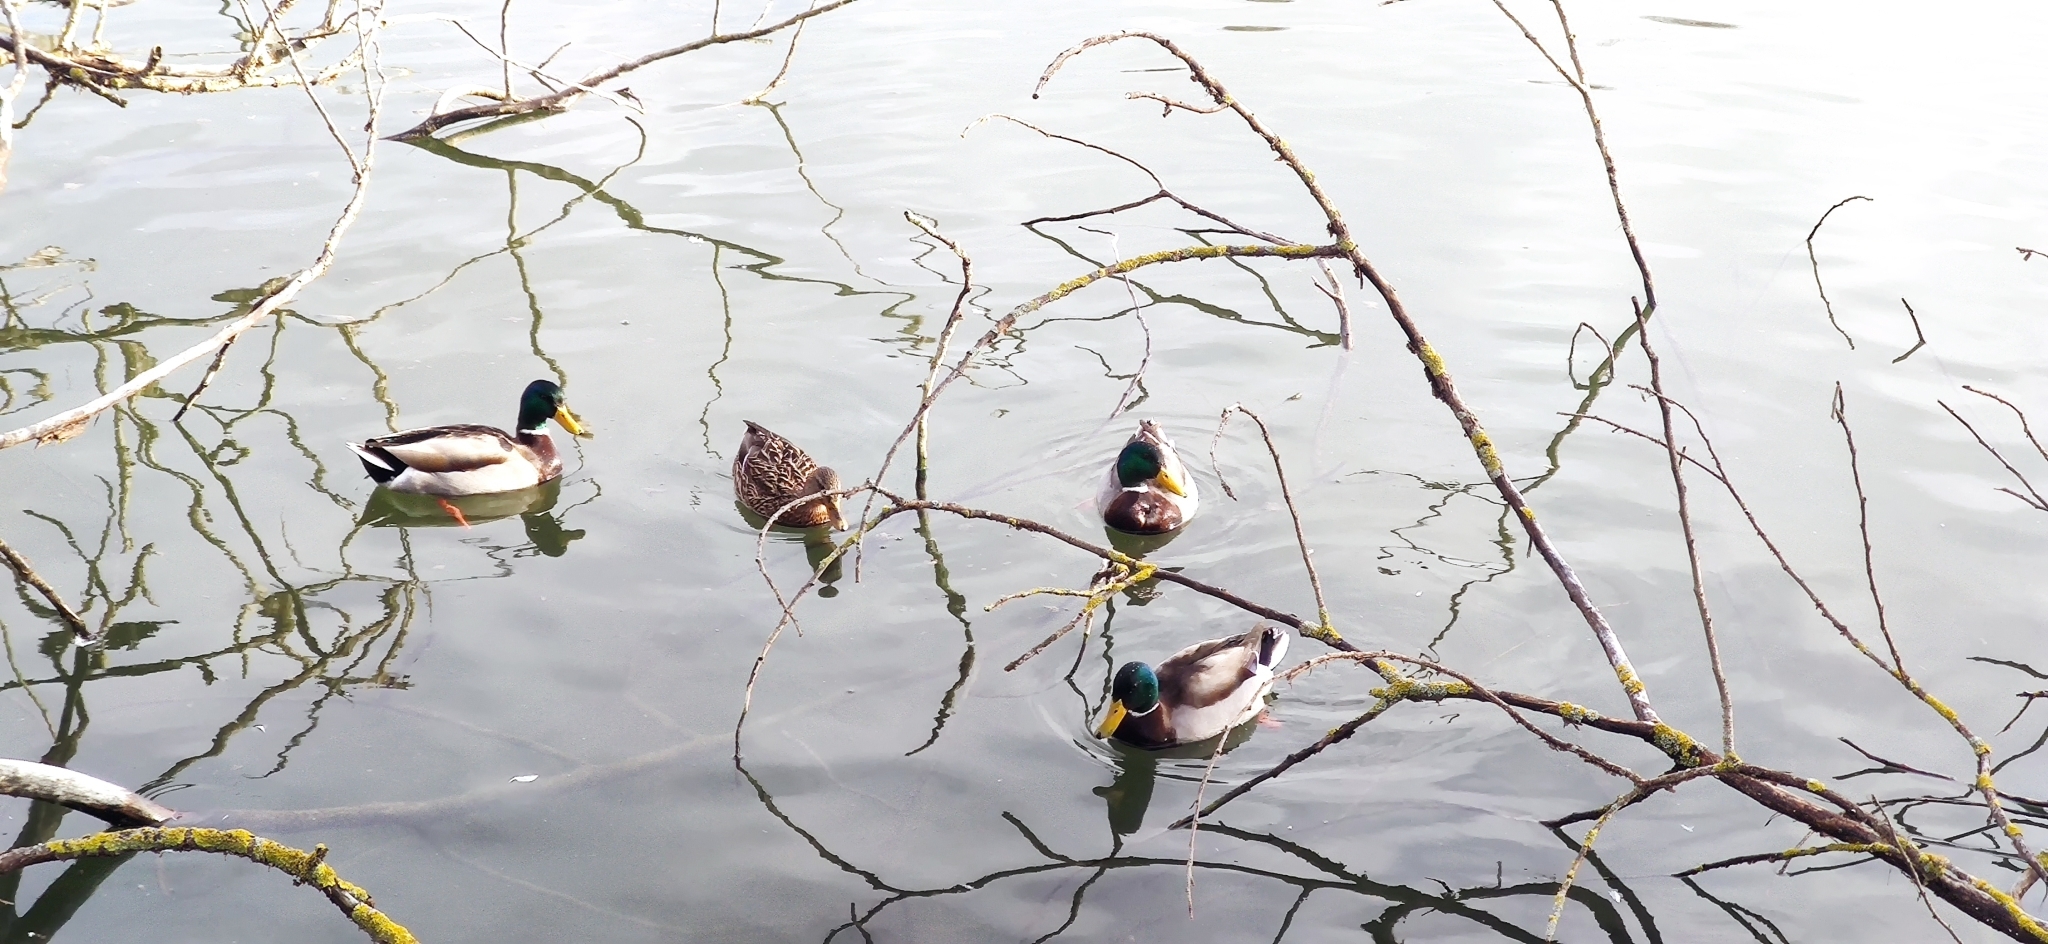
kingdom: Animalia
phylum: Chordata
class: Aves
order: Anseriformes
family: Anatidae
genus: Anas
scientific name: Anas platyrhynchos
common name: Mallard
